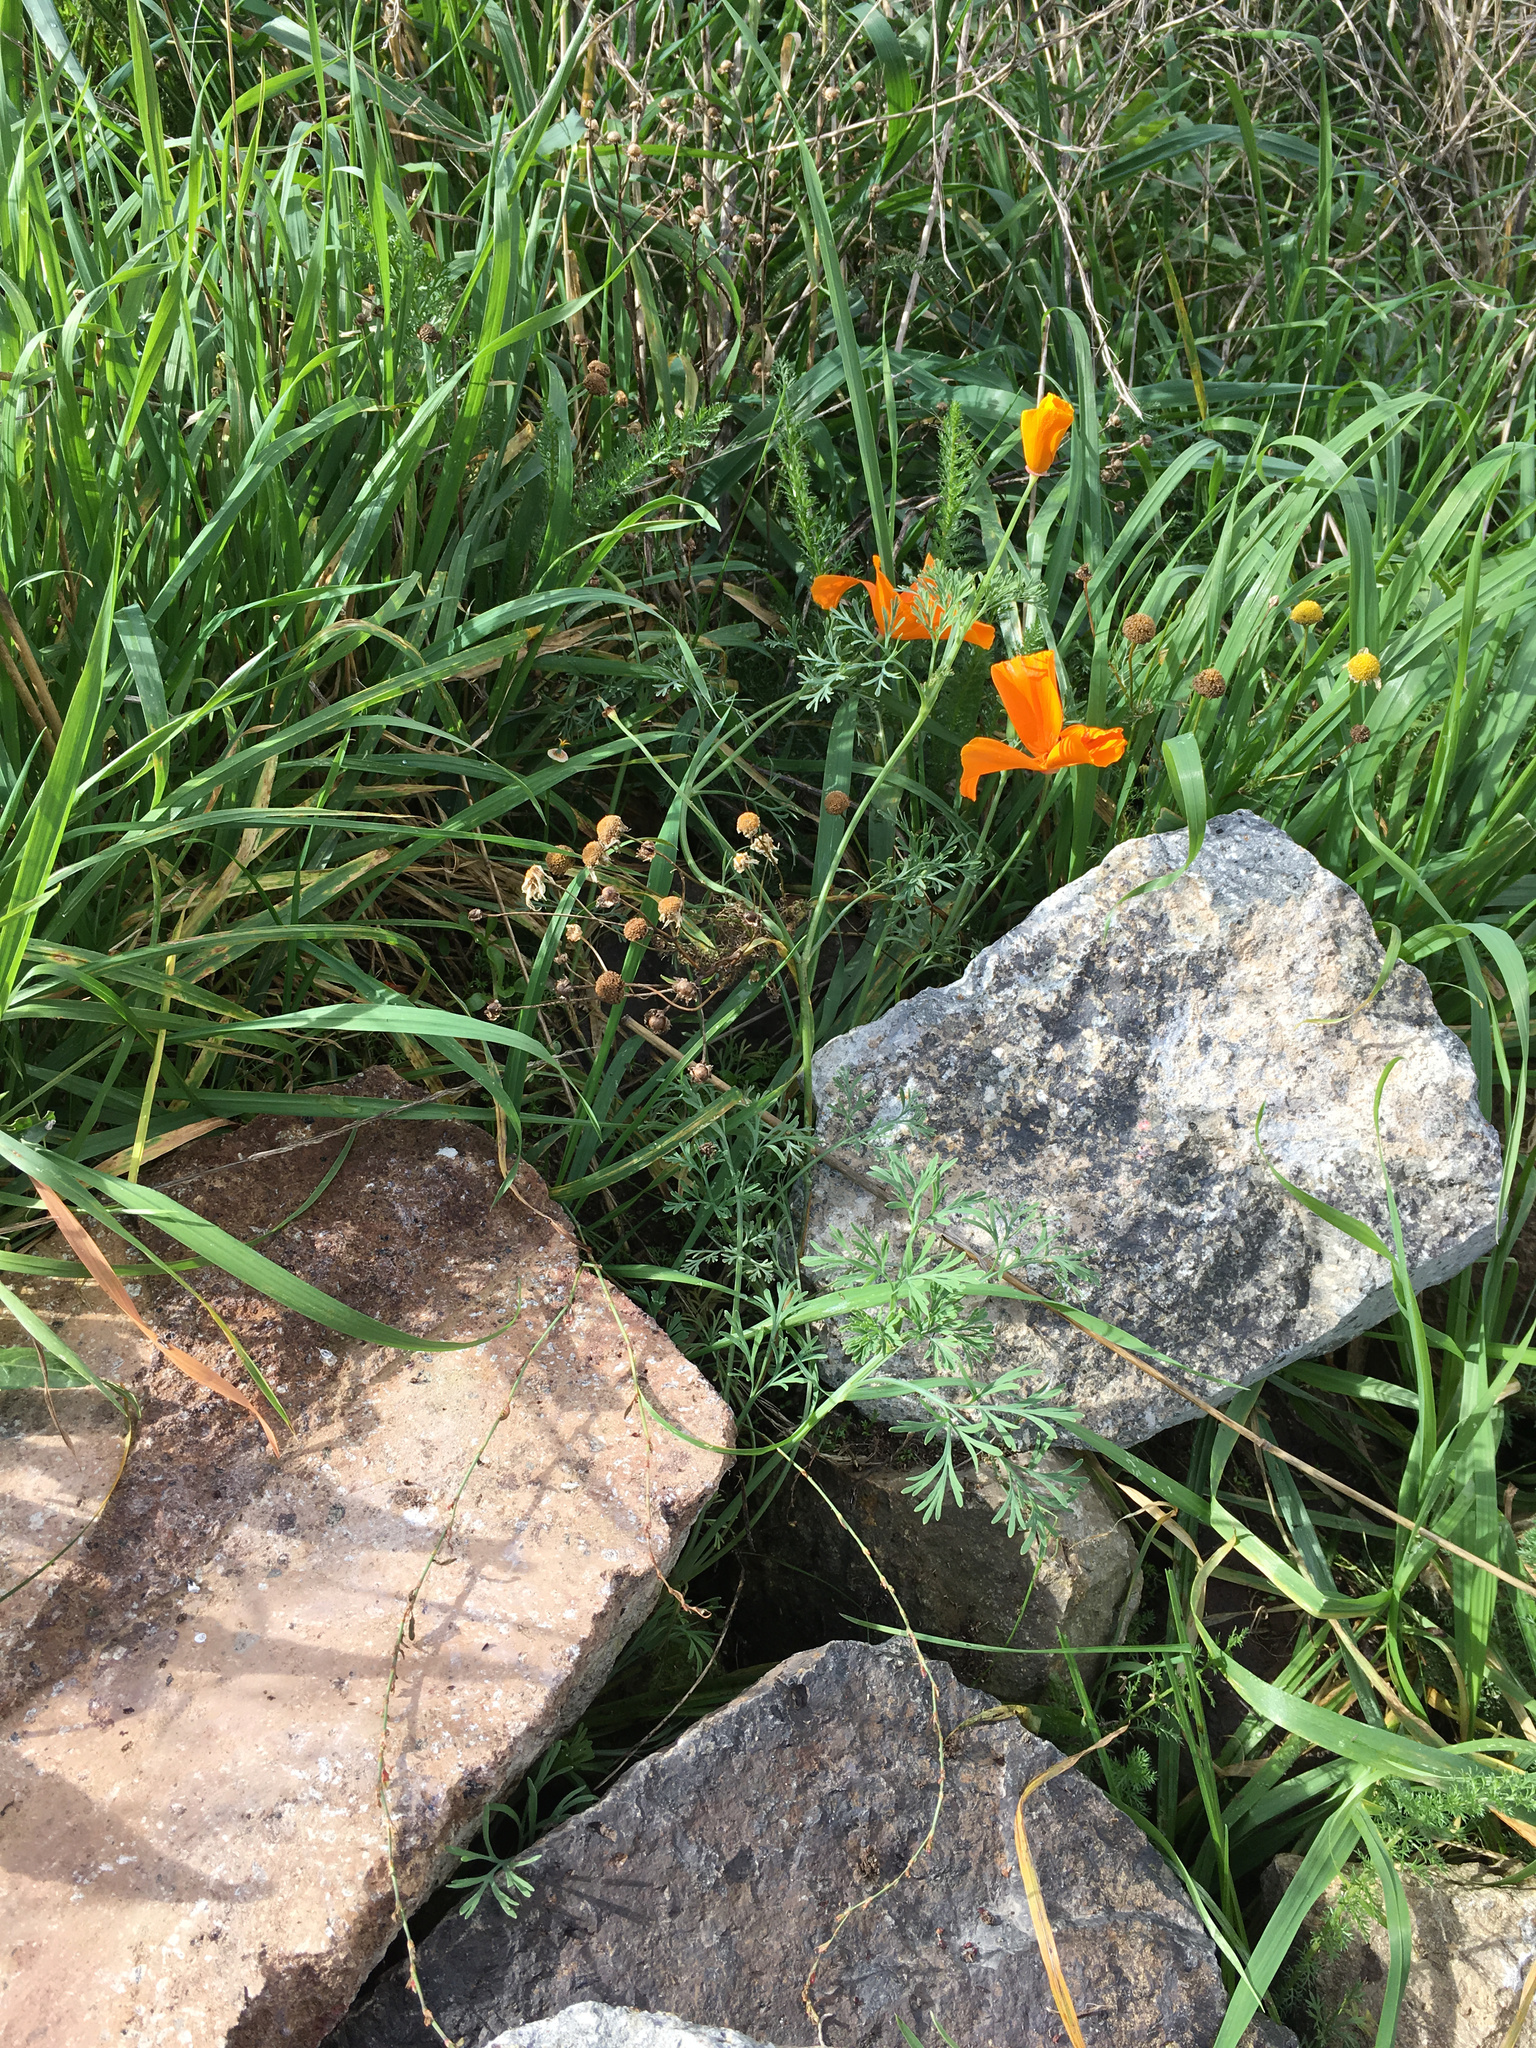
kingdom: Plantae
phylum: Tracheophyta
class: Magnoliopsida
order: Ranunculales
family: Papaveraceae
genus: Eschscholzia
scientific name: Eschscholzia californica
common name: California poppy
